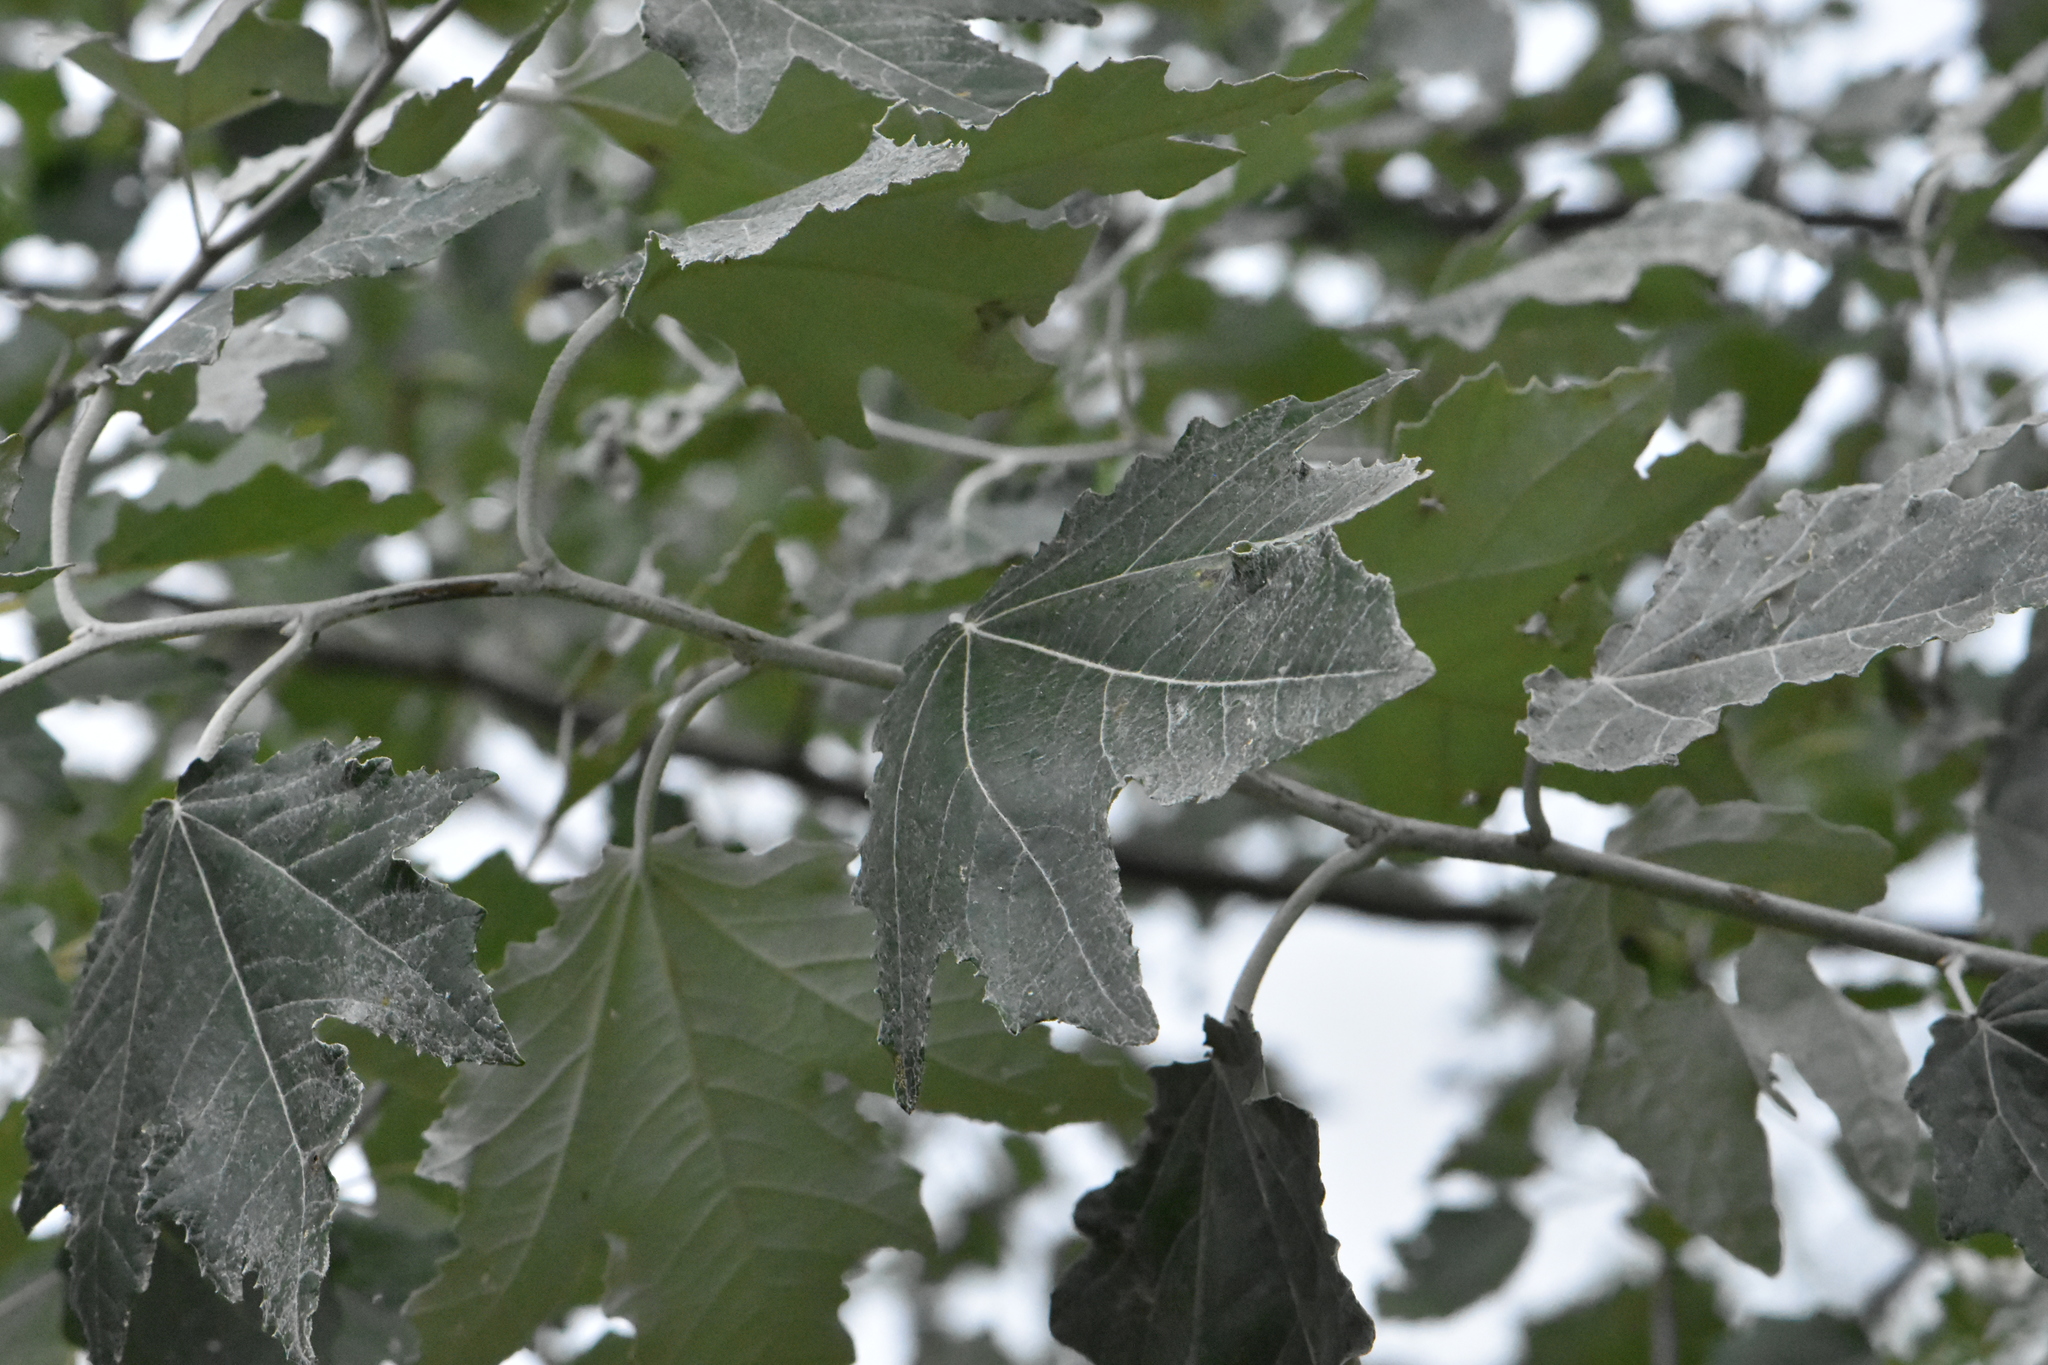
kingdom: Plantae
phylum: Tracheophyta
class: Magnoliopsida
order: Malpighiales
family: Salicaceae
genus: Populus
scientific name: Populus alba
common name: White poplar
